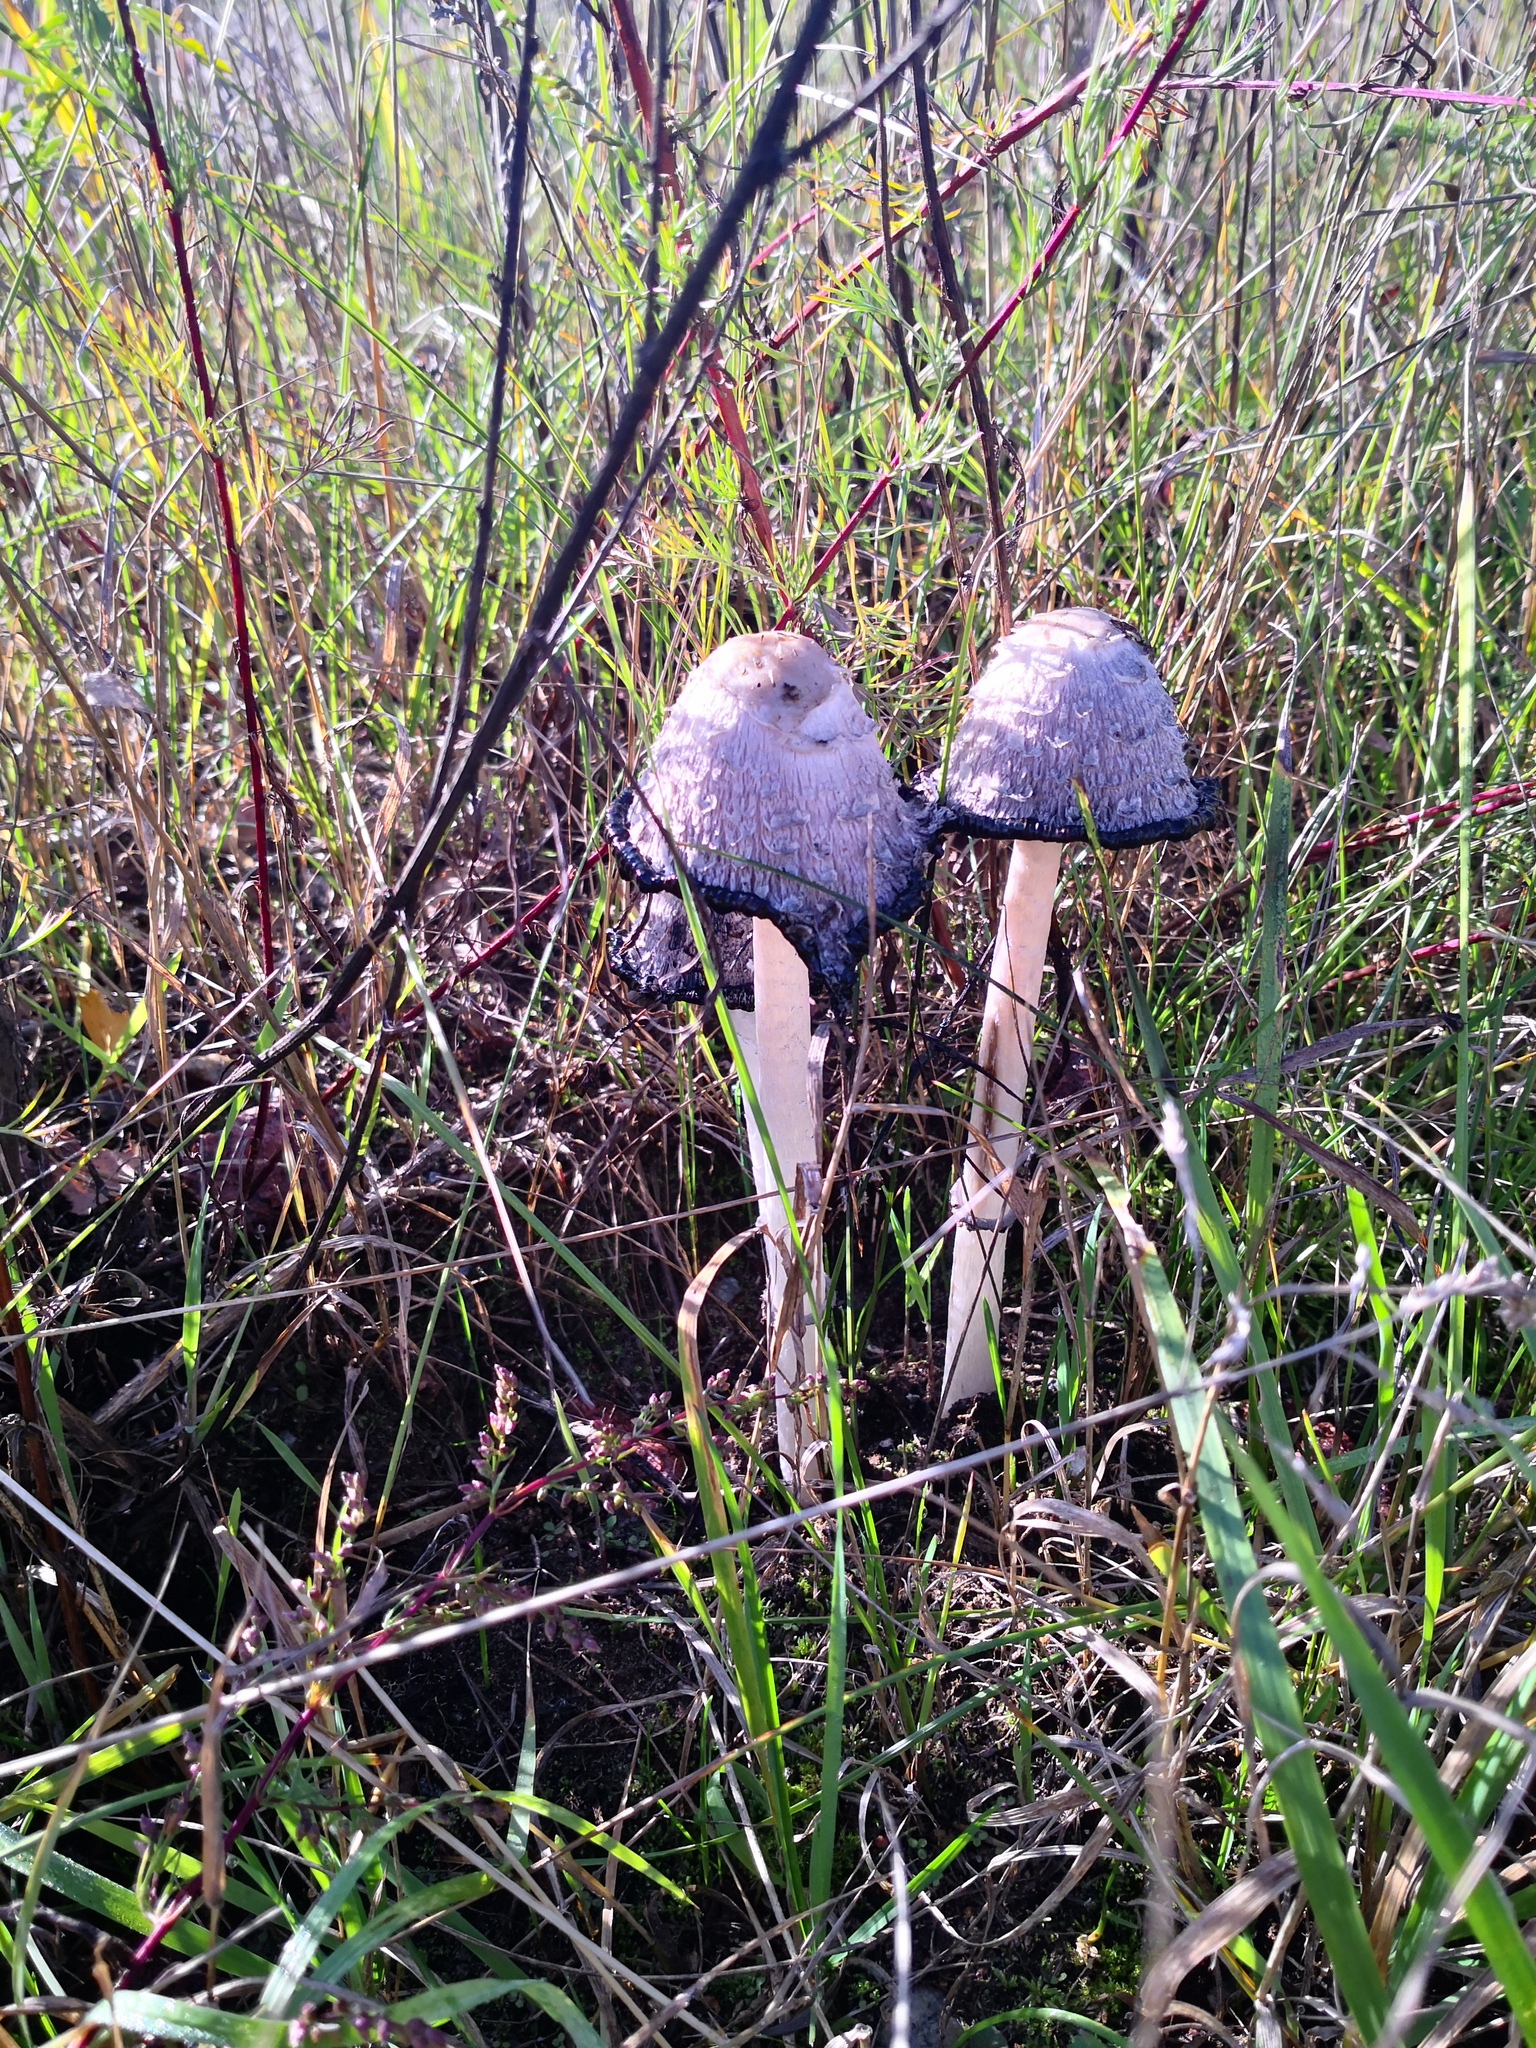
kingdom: Fungi
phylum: Basidiomycota
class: Agaricomycetes
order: Agaricales
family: Agaricaceae
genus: Coprinus
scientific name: Coprinus comatus
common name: Lawyer's wig
